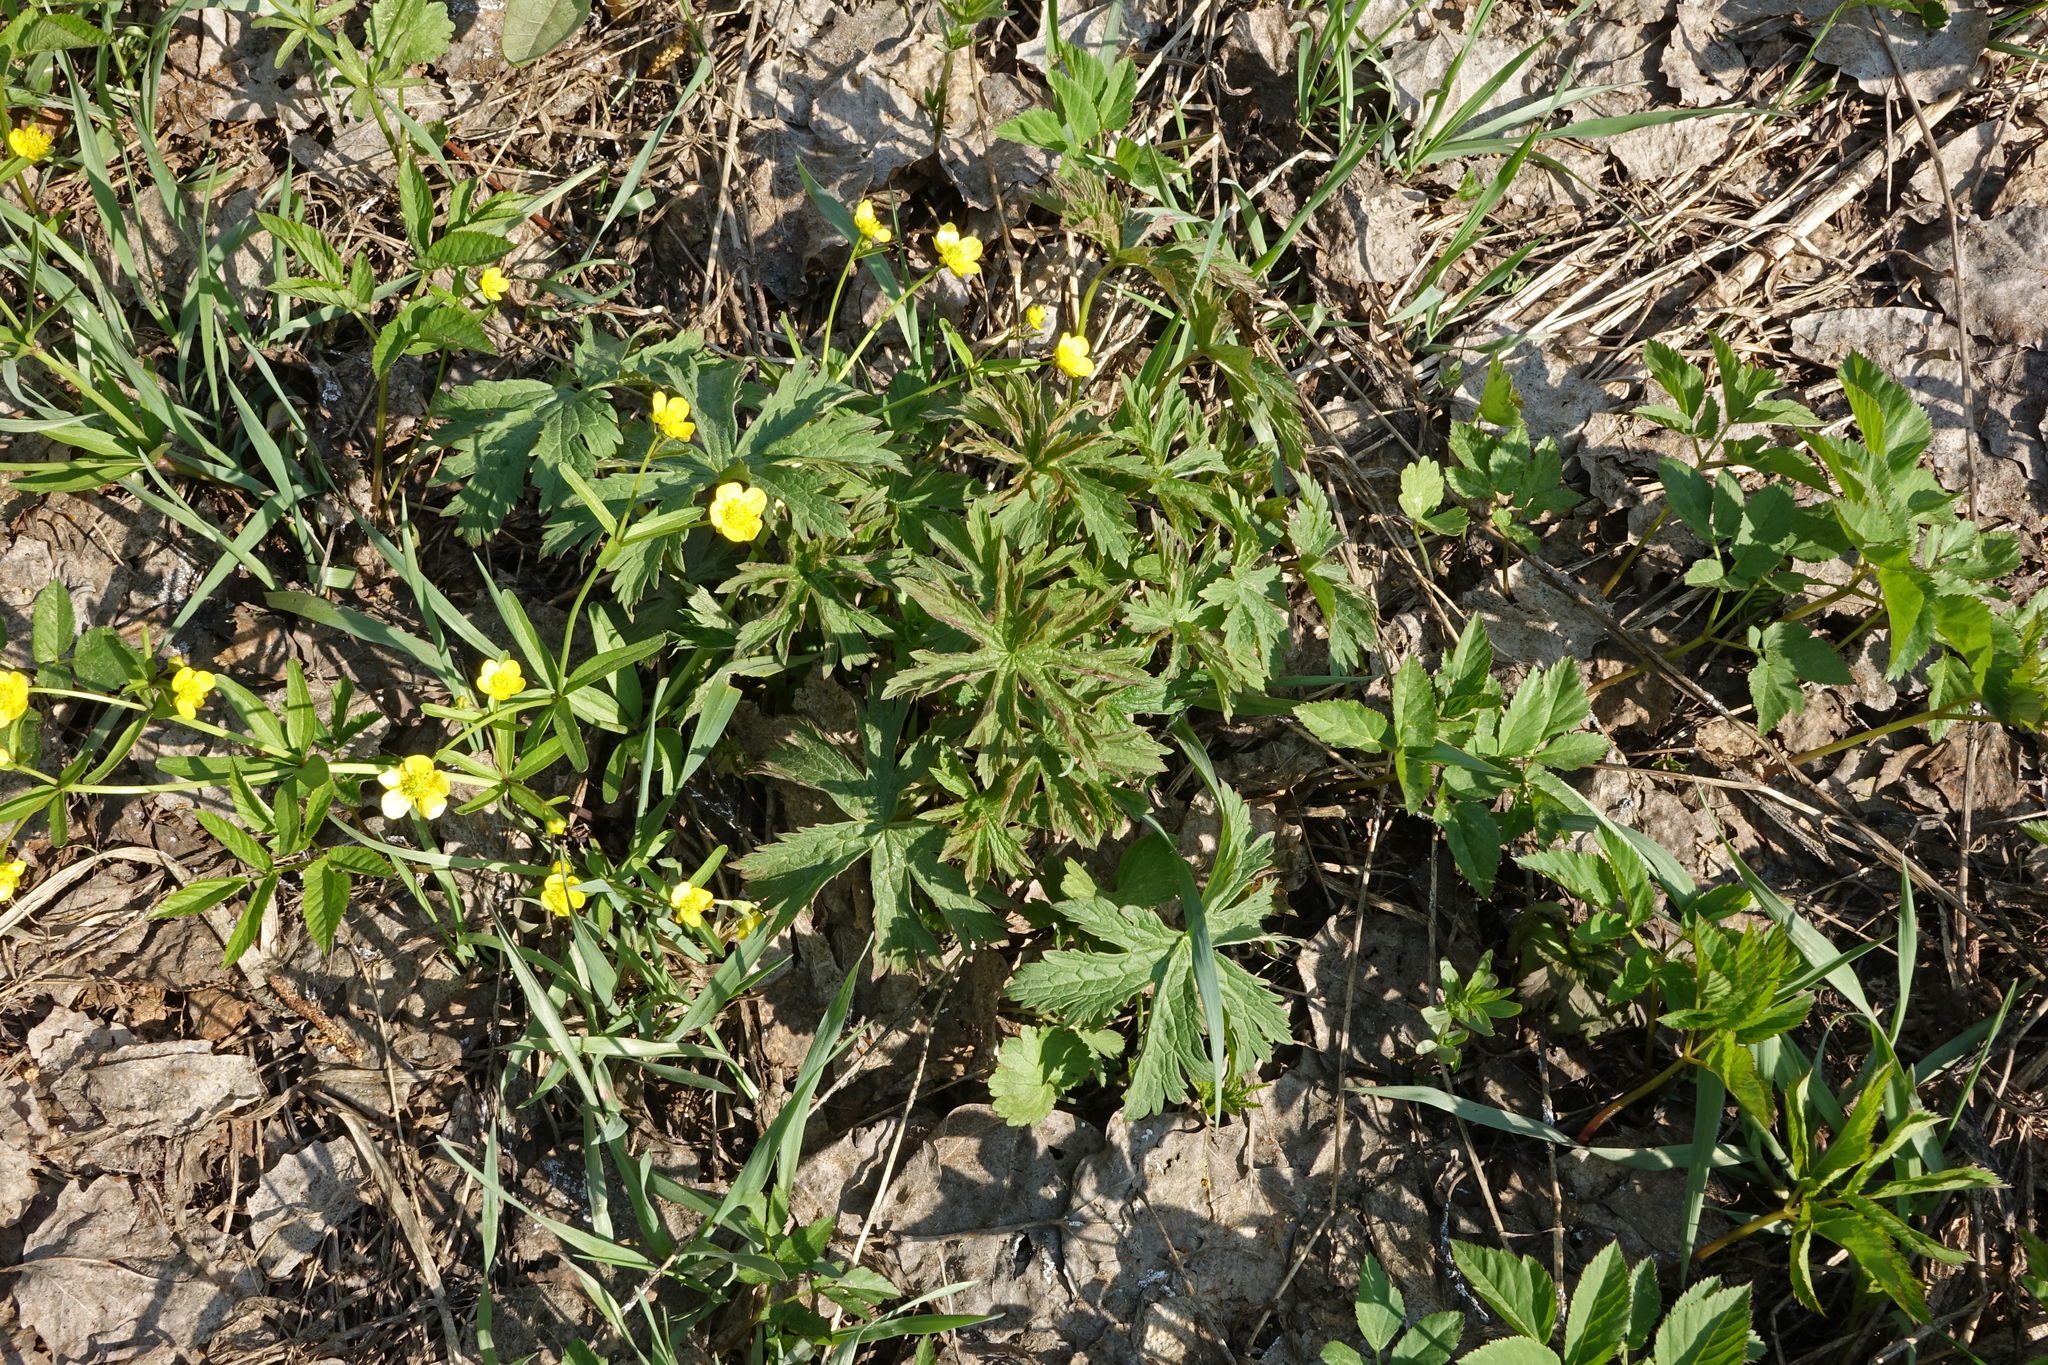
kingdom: Plantae
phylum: Tracheophyta
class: Magnoliopsida
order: Ranunculales
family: Ranunculaceae
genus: Ranunculus
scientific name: Ranunculus monophyllus
